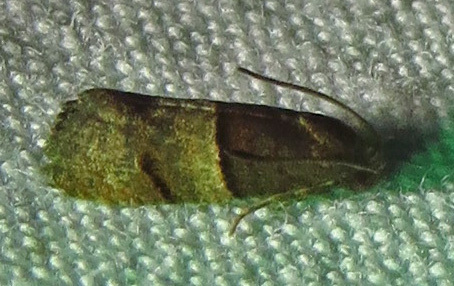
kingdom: Animalia
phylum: Arthropoda
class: Insecta
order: Lepidoptera
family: Tortricidae
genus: Larisa
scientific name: Larisa subsolana
